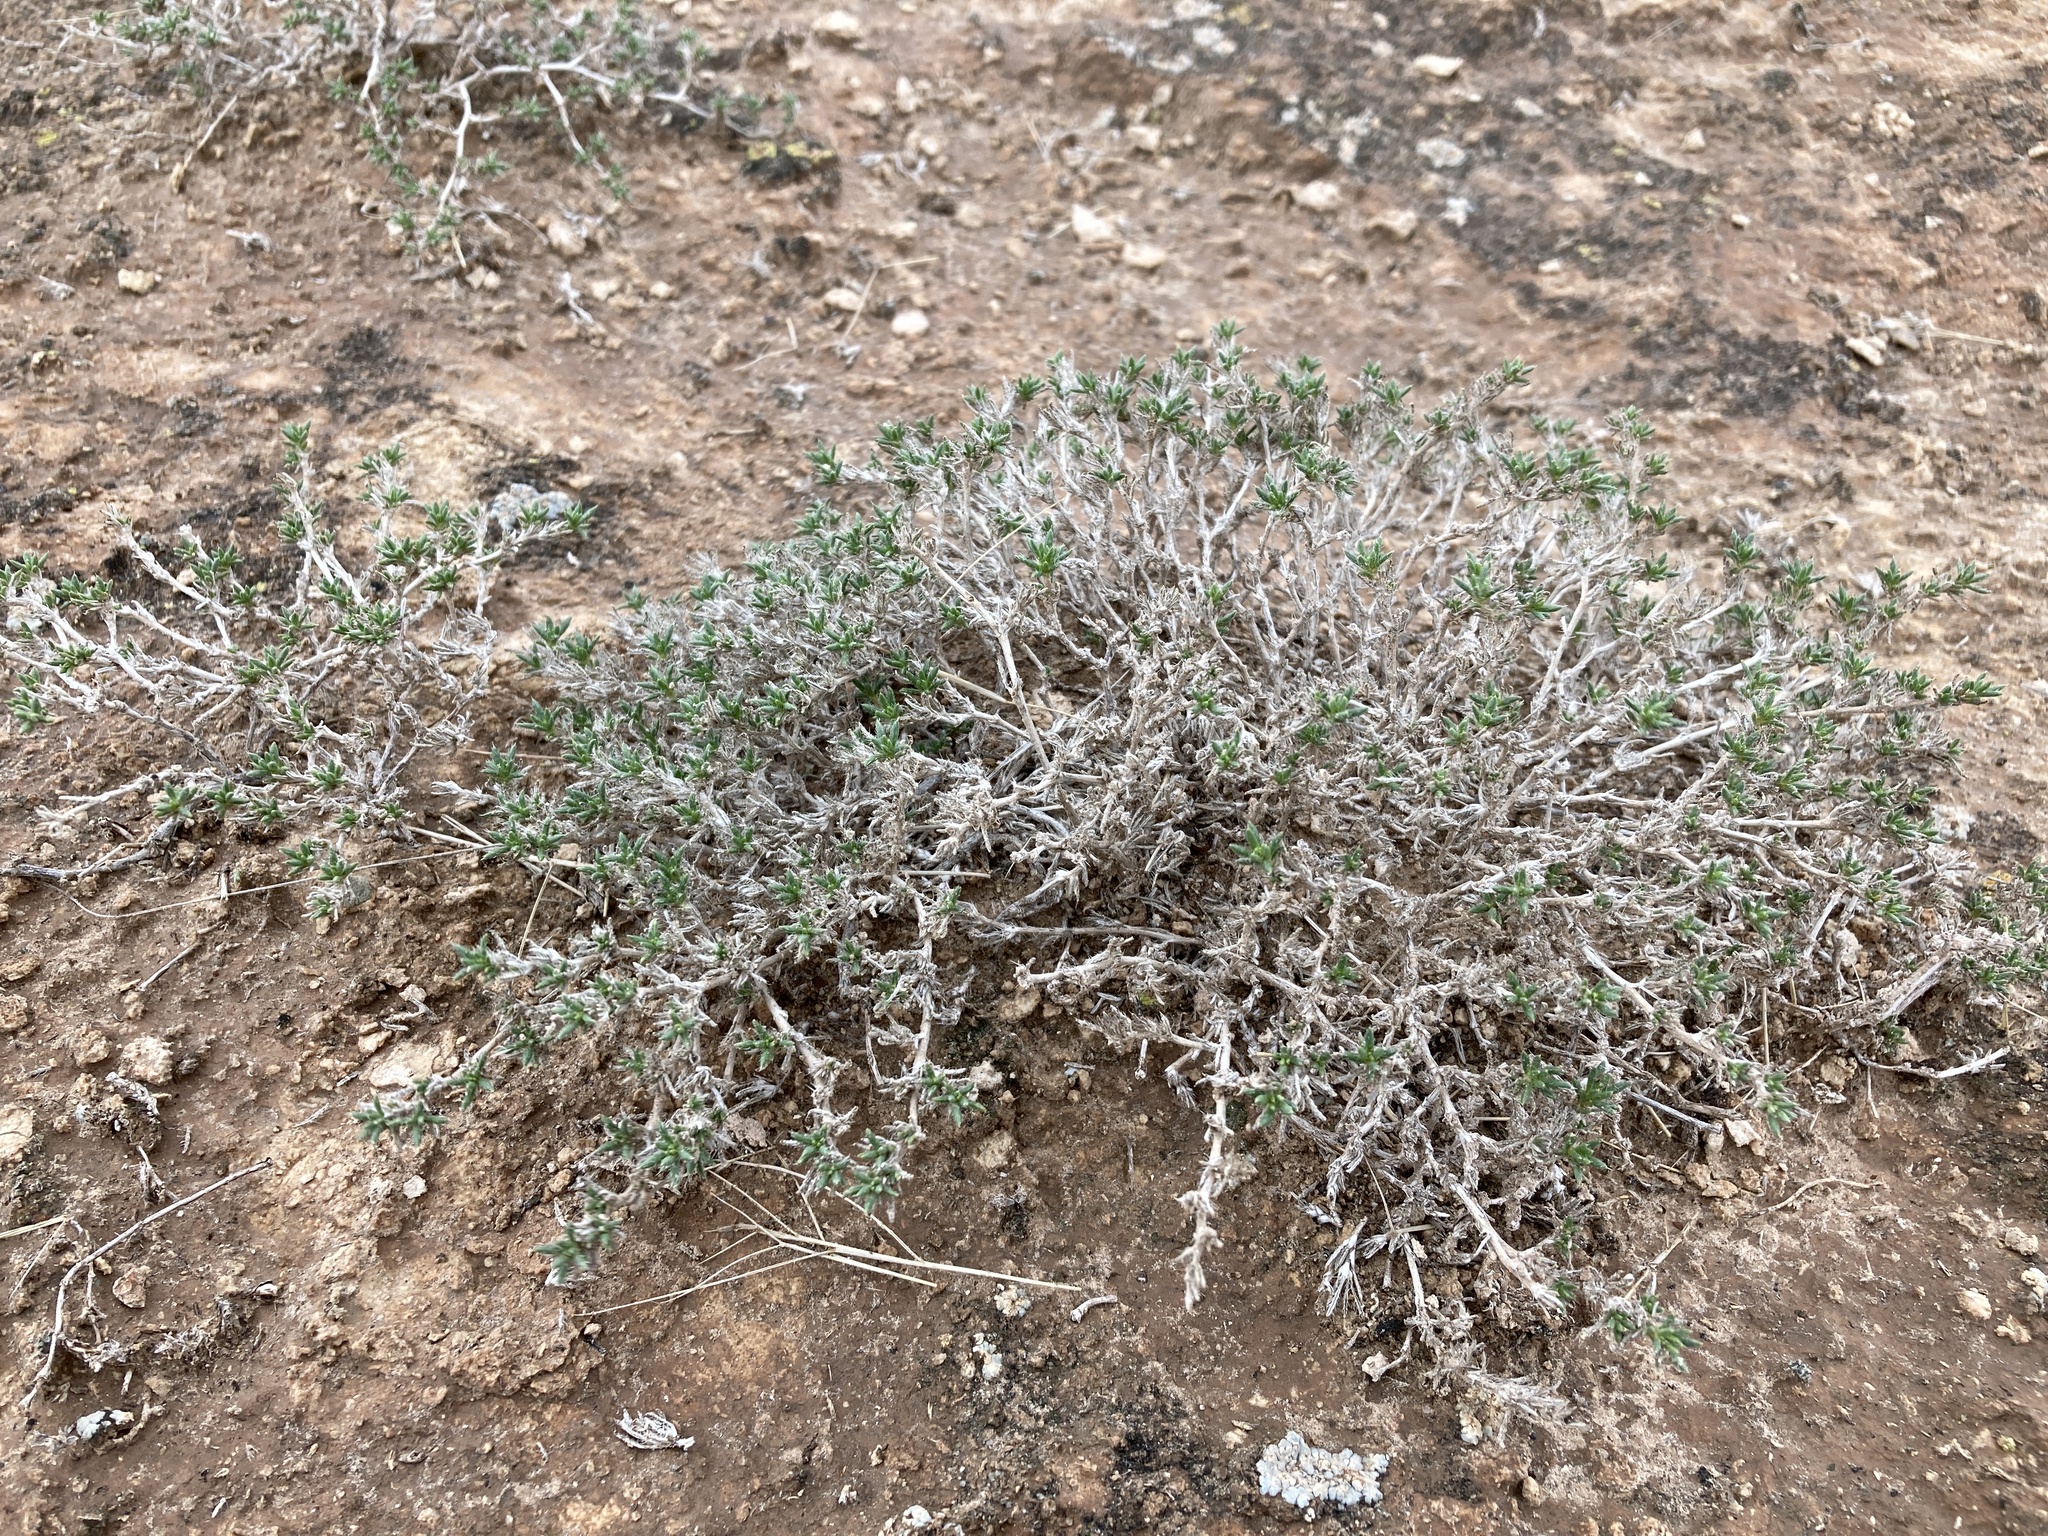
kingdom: Plantae
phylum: Tracheophyta
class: Magnoliopsida
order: Boraginales
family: Ehretiaceae
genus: Tiquilia
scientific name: Tiquilia hispidissima
